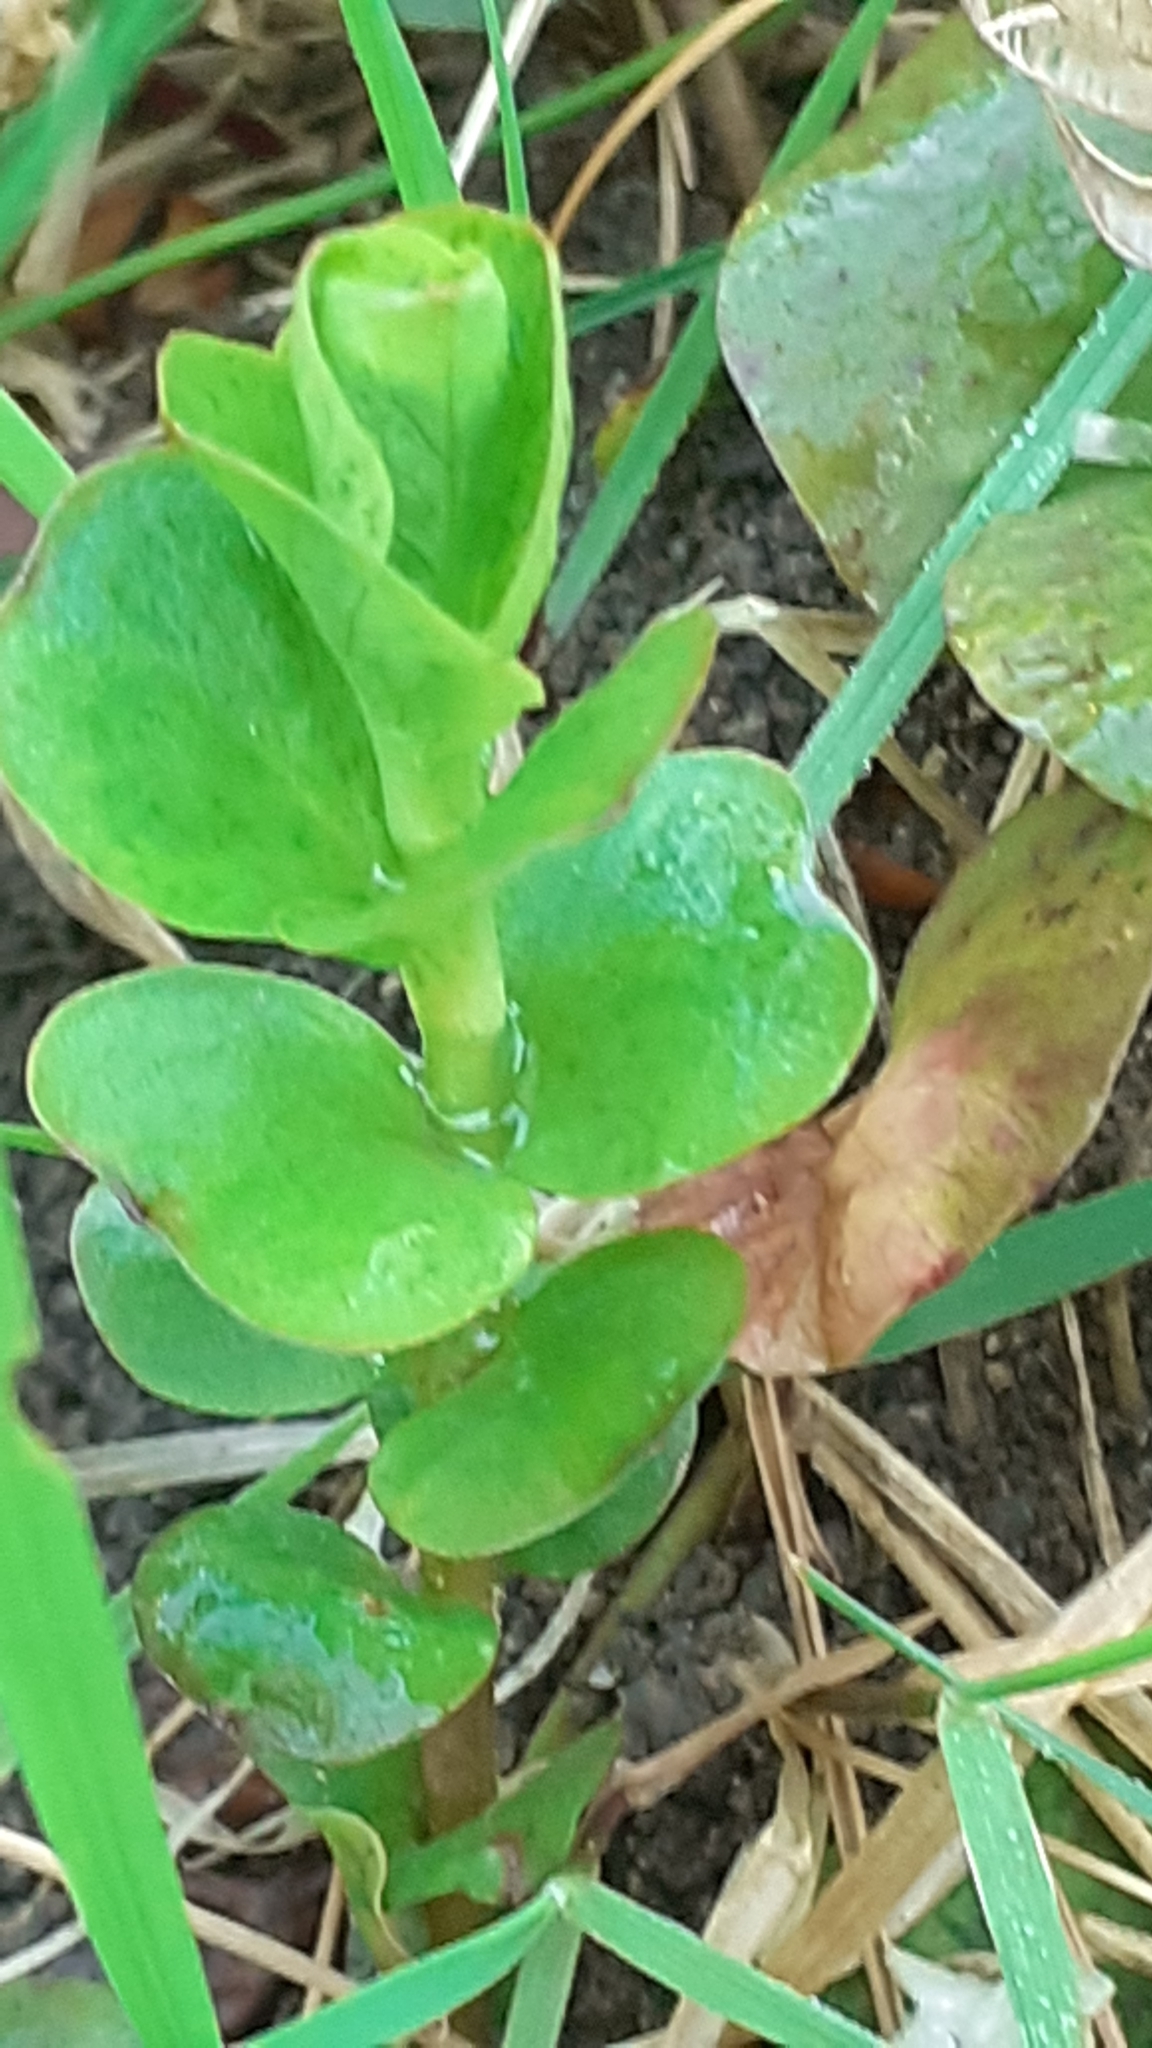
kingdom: Plantae
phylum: Tracheophyta
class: Magnoliopsida
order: Ericales
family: Primulaceae
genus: Lysimachia
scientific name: Lysimachia nummularia
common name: Moneywort
